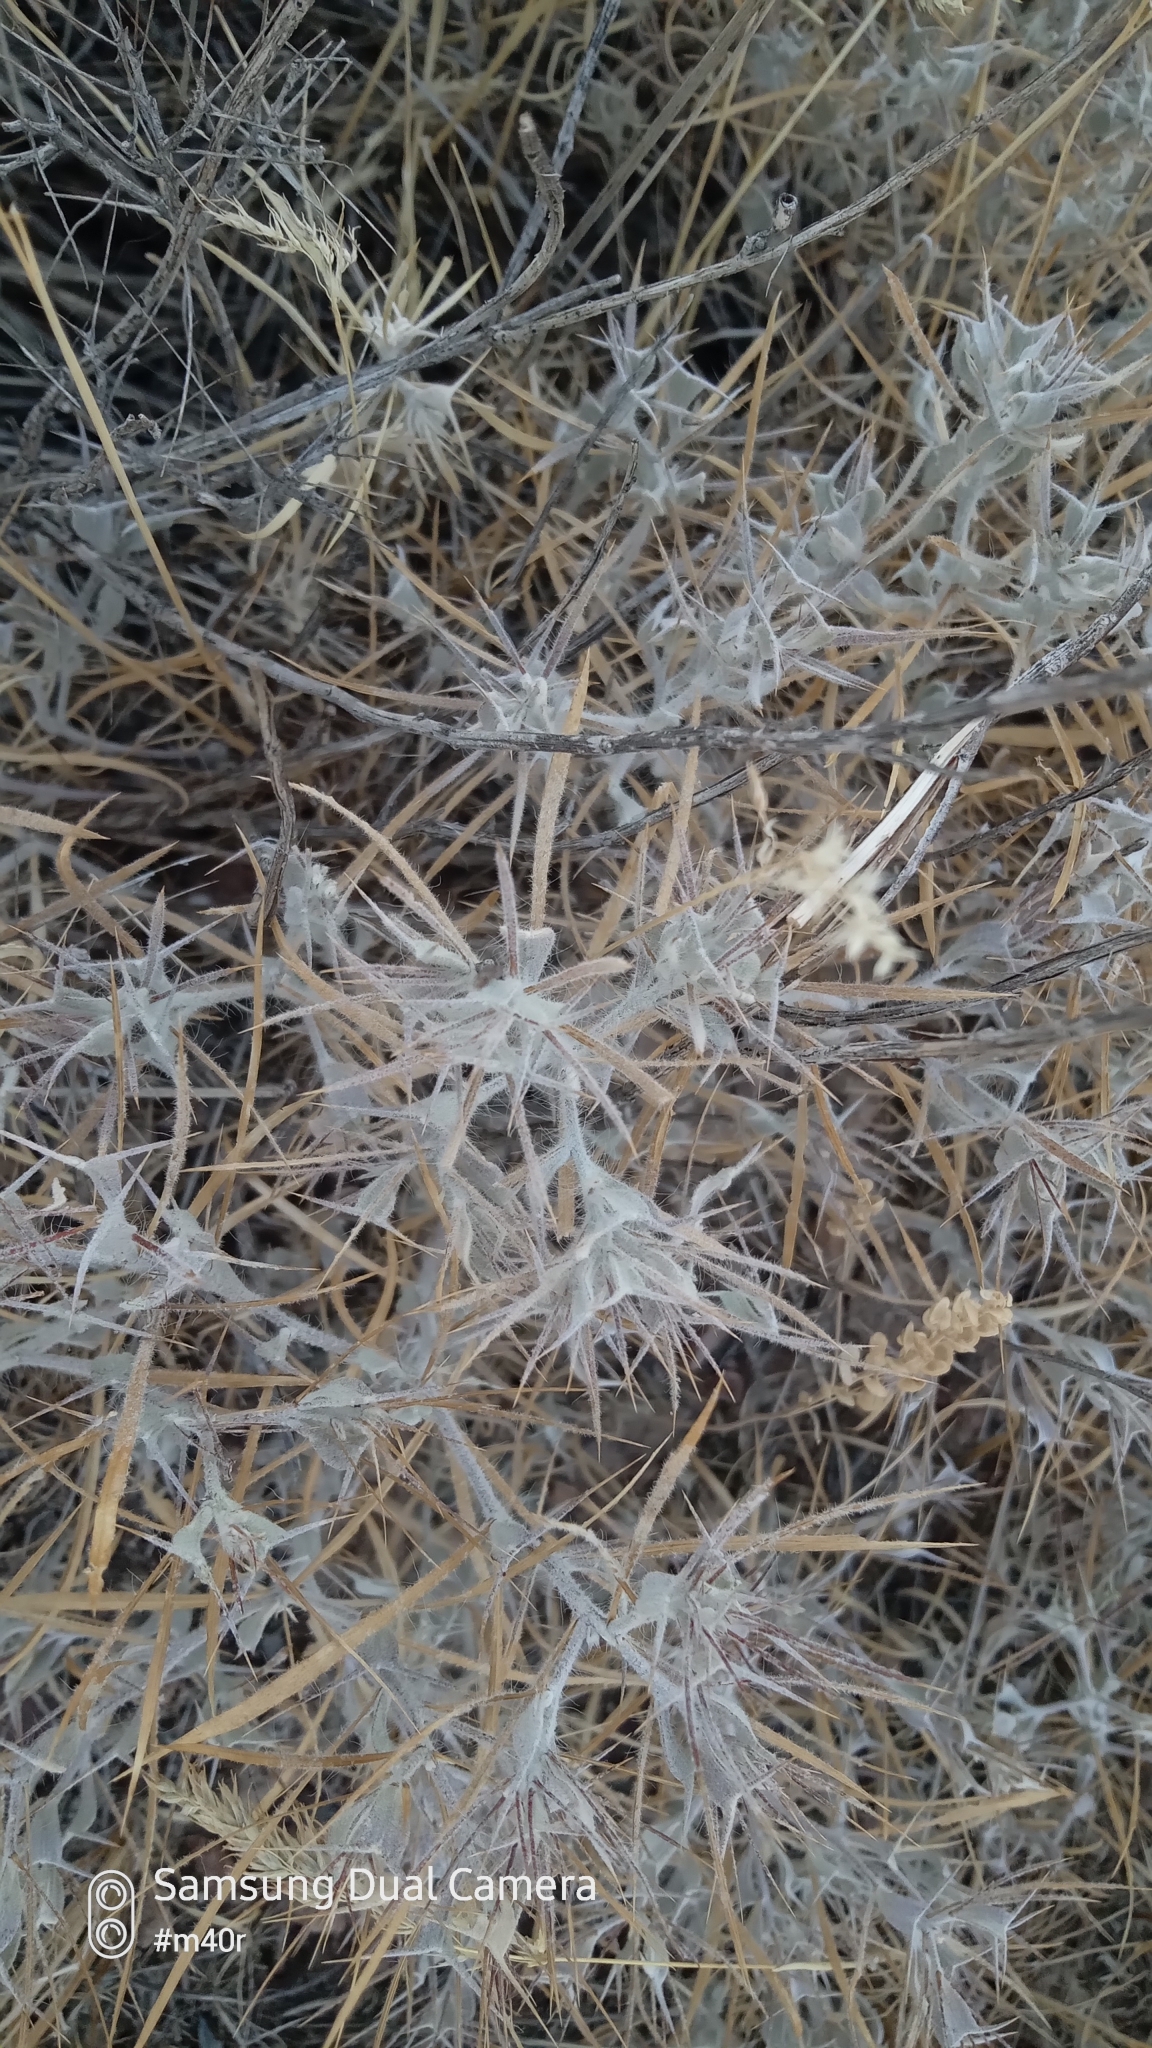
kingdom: Plantae
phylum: Tracheophyta
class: Magnoliopsida
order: Caryophyllales
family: Amaranthaceae
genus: Ceratocarpus
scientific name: Ceratocarpus arenarius
